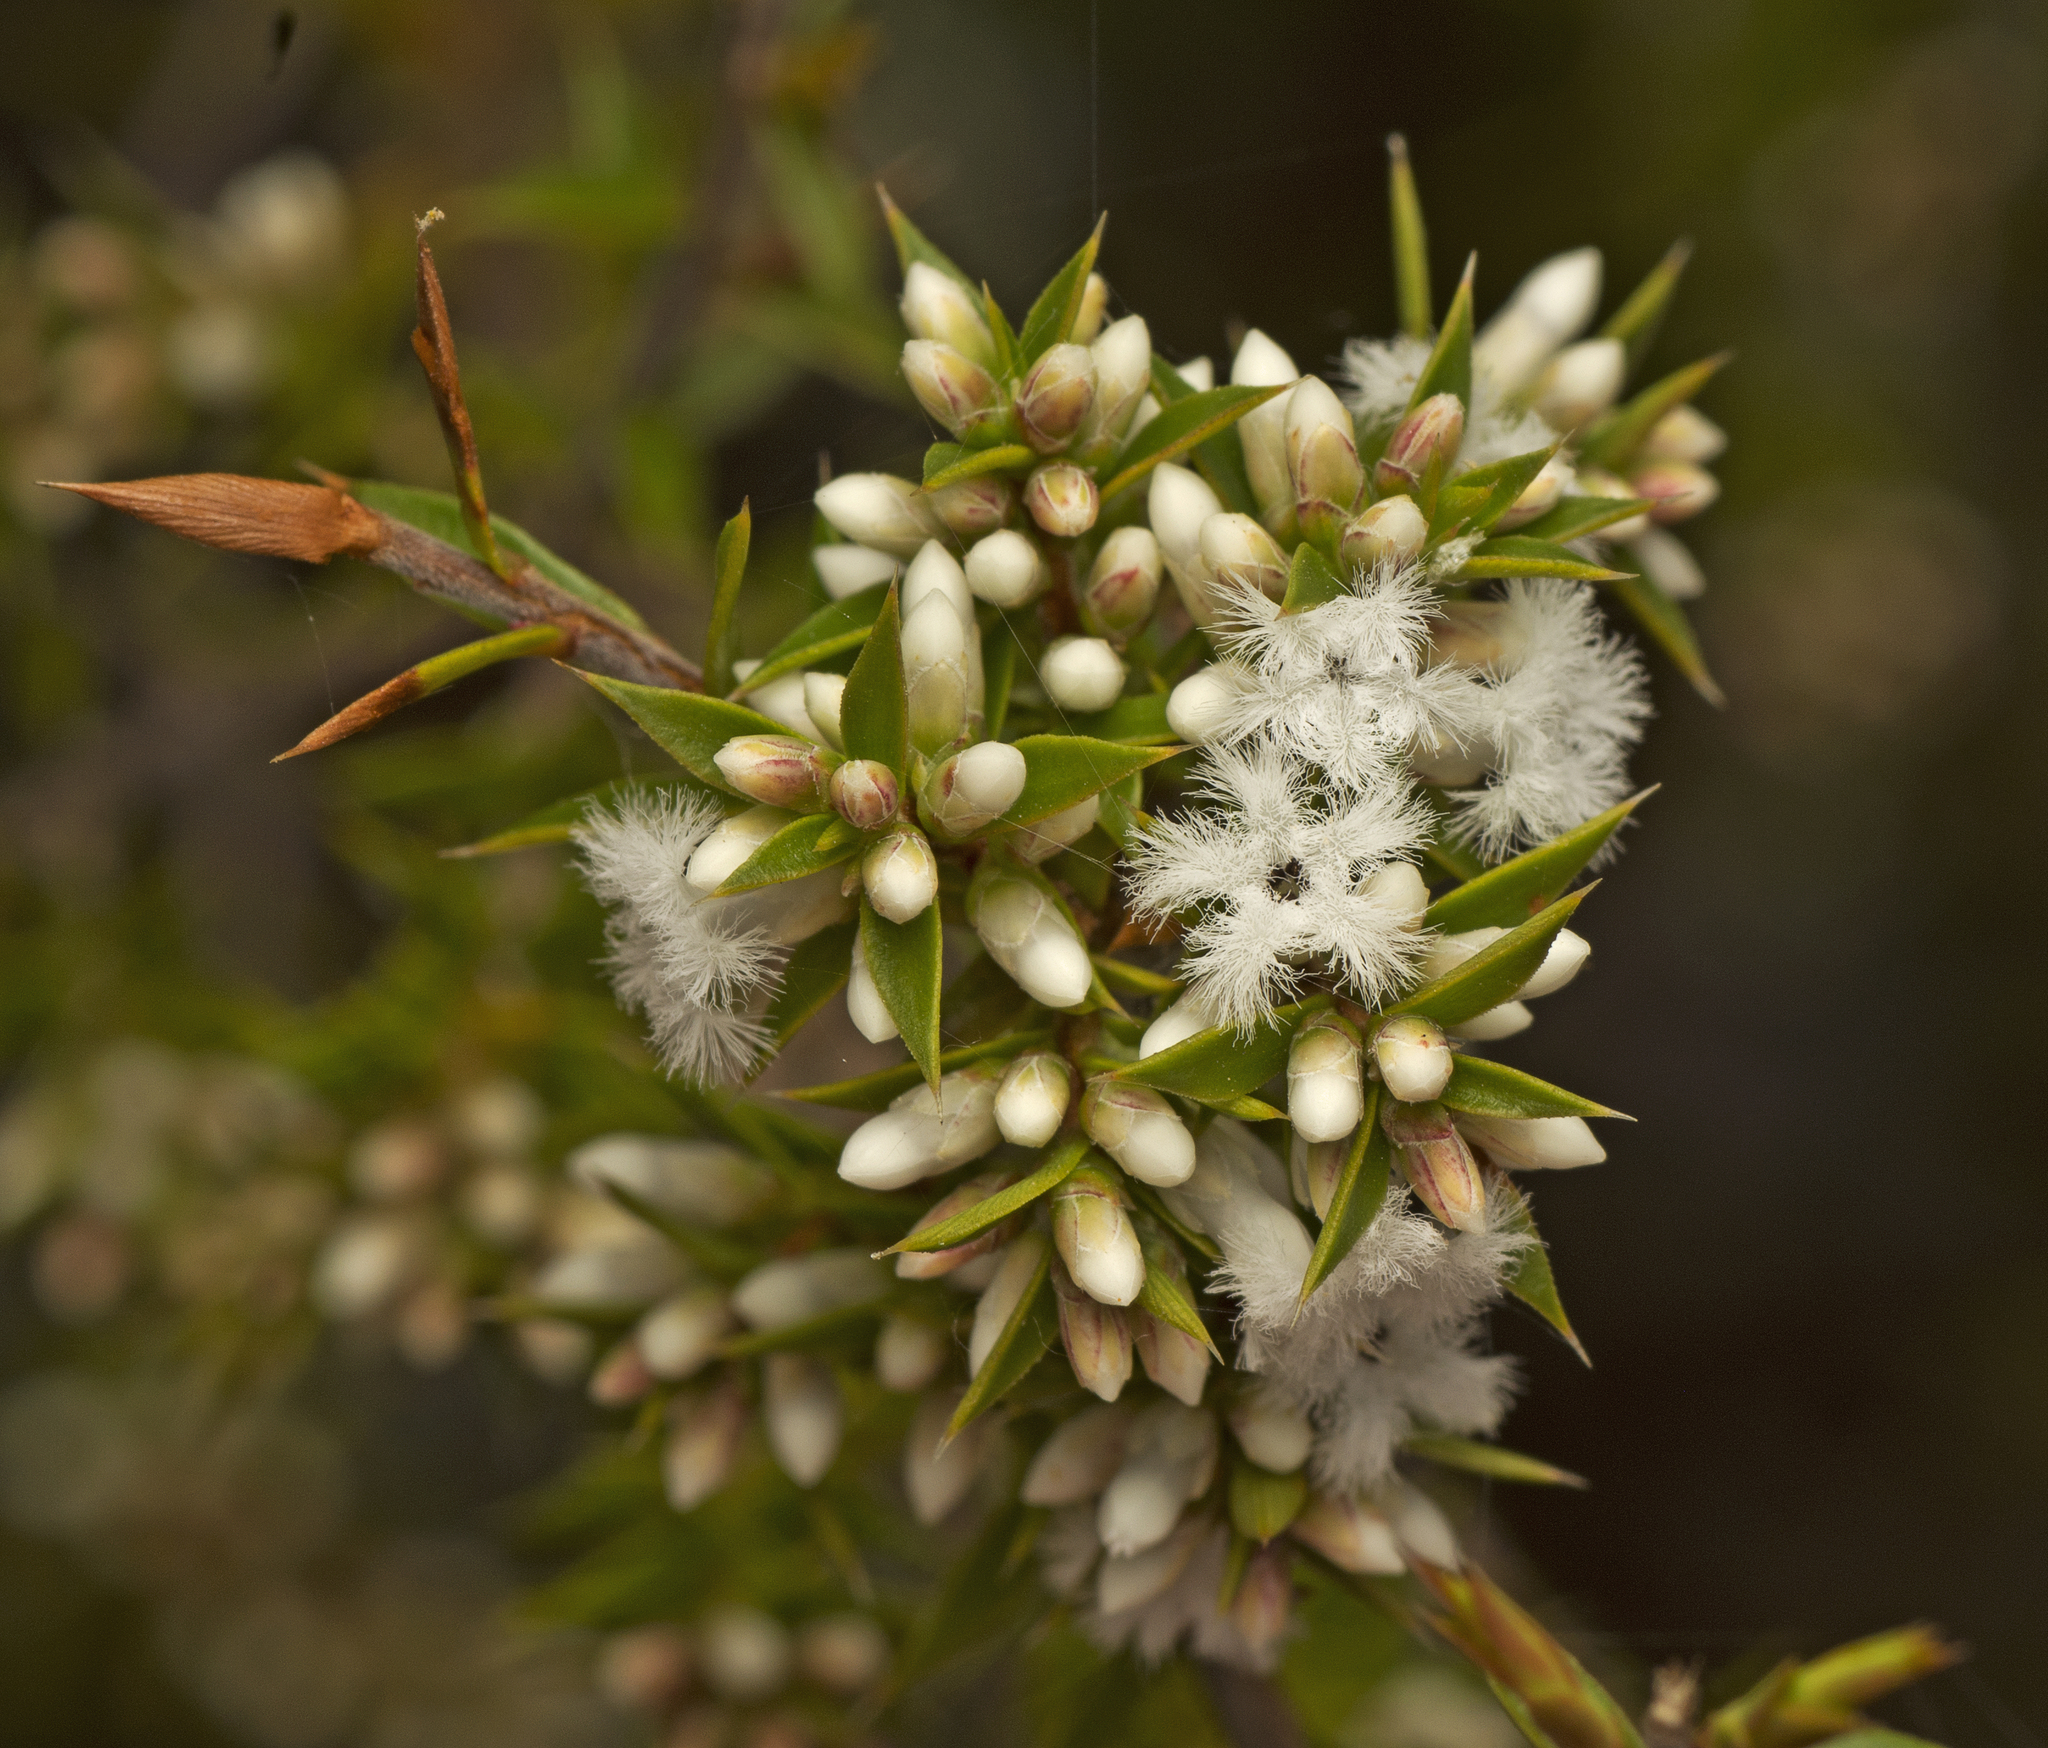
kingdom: Plantae
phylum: Tracheophyta
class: Magnoliopsida
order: Ericales
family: Ericaceae
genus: Styphelia
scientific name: Styphelia
